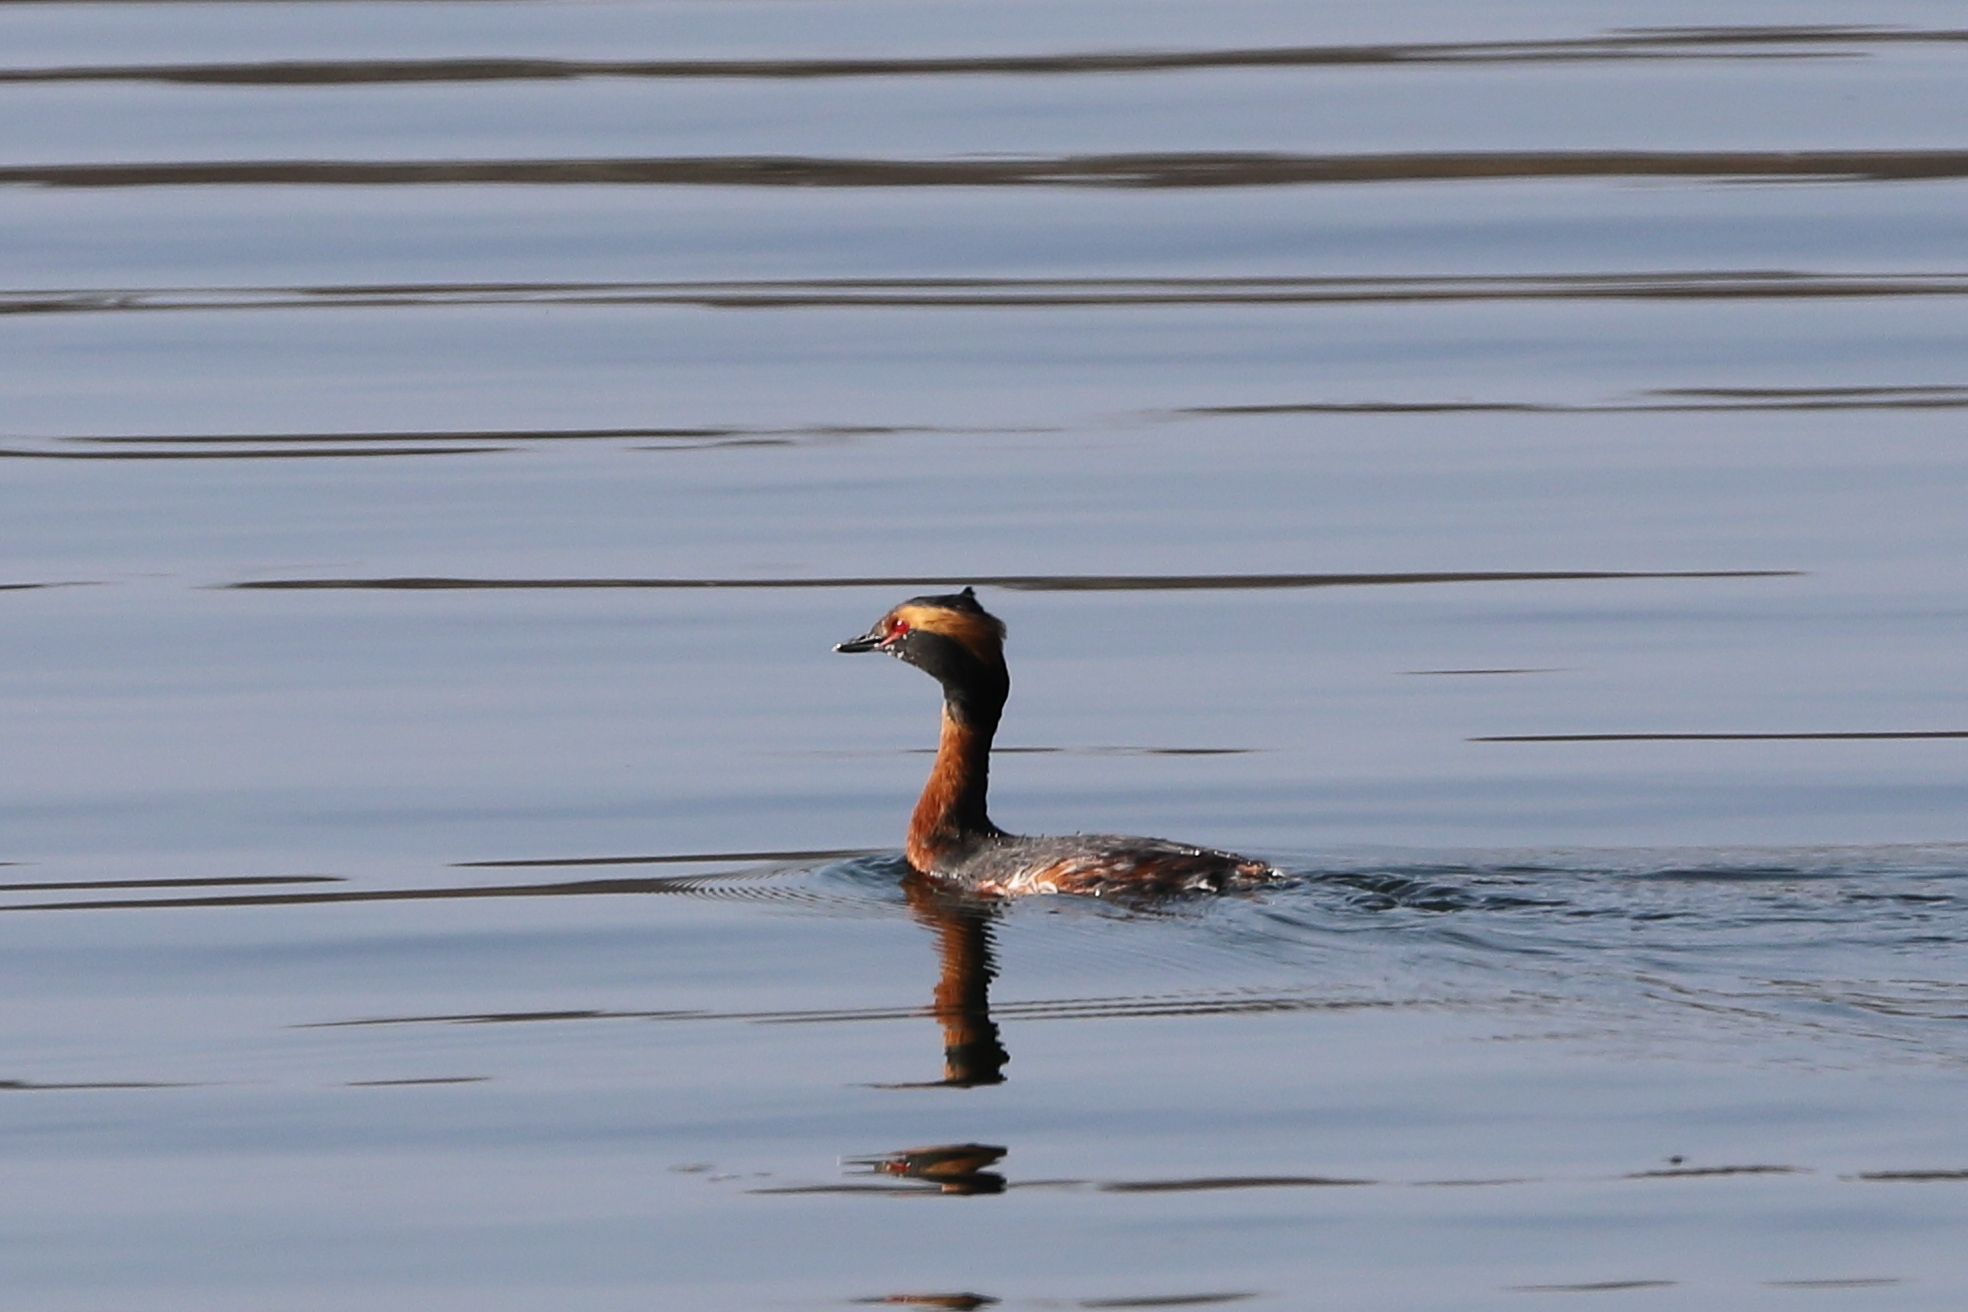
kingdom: Animalia
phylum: Chordata
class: Aves
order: Podicipediformes
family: Podicipedidae
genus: Podiceps
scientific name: Podiceps auritus
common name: Horned grebe
